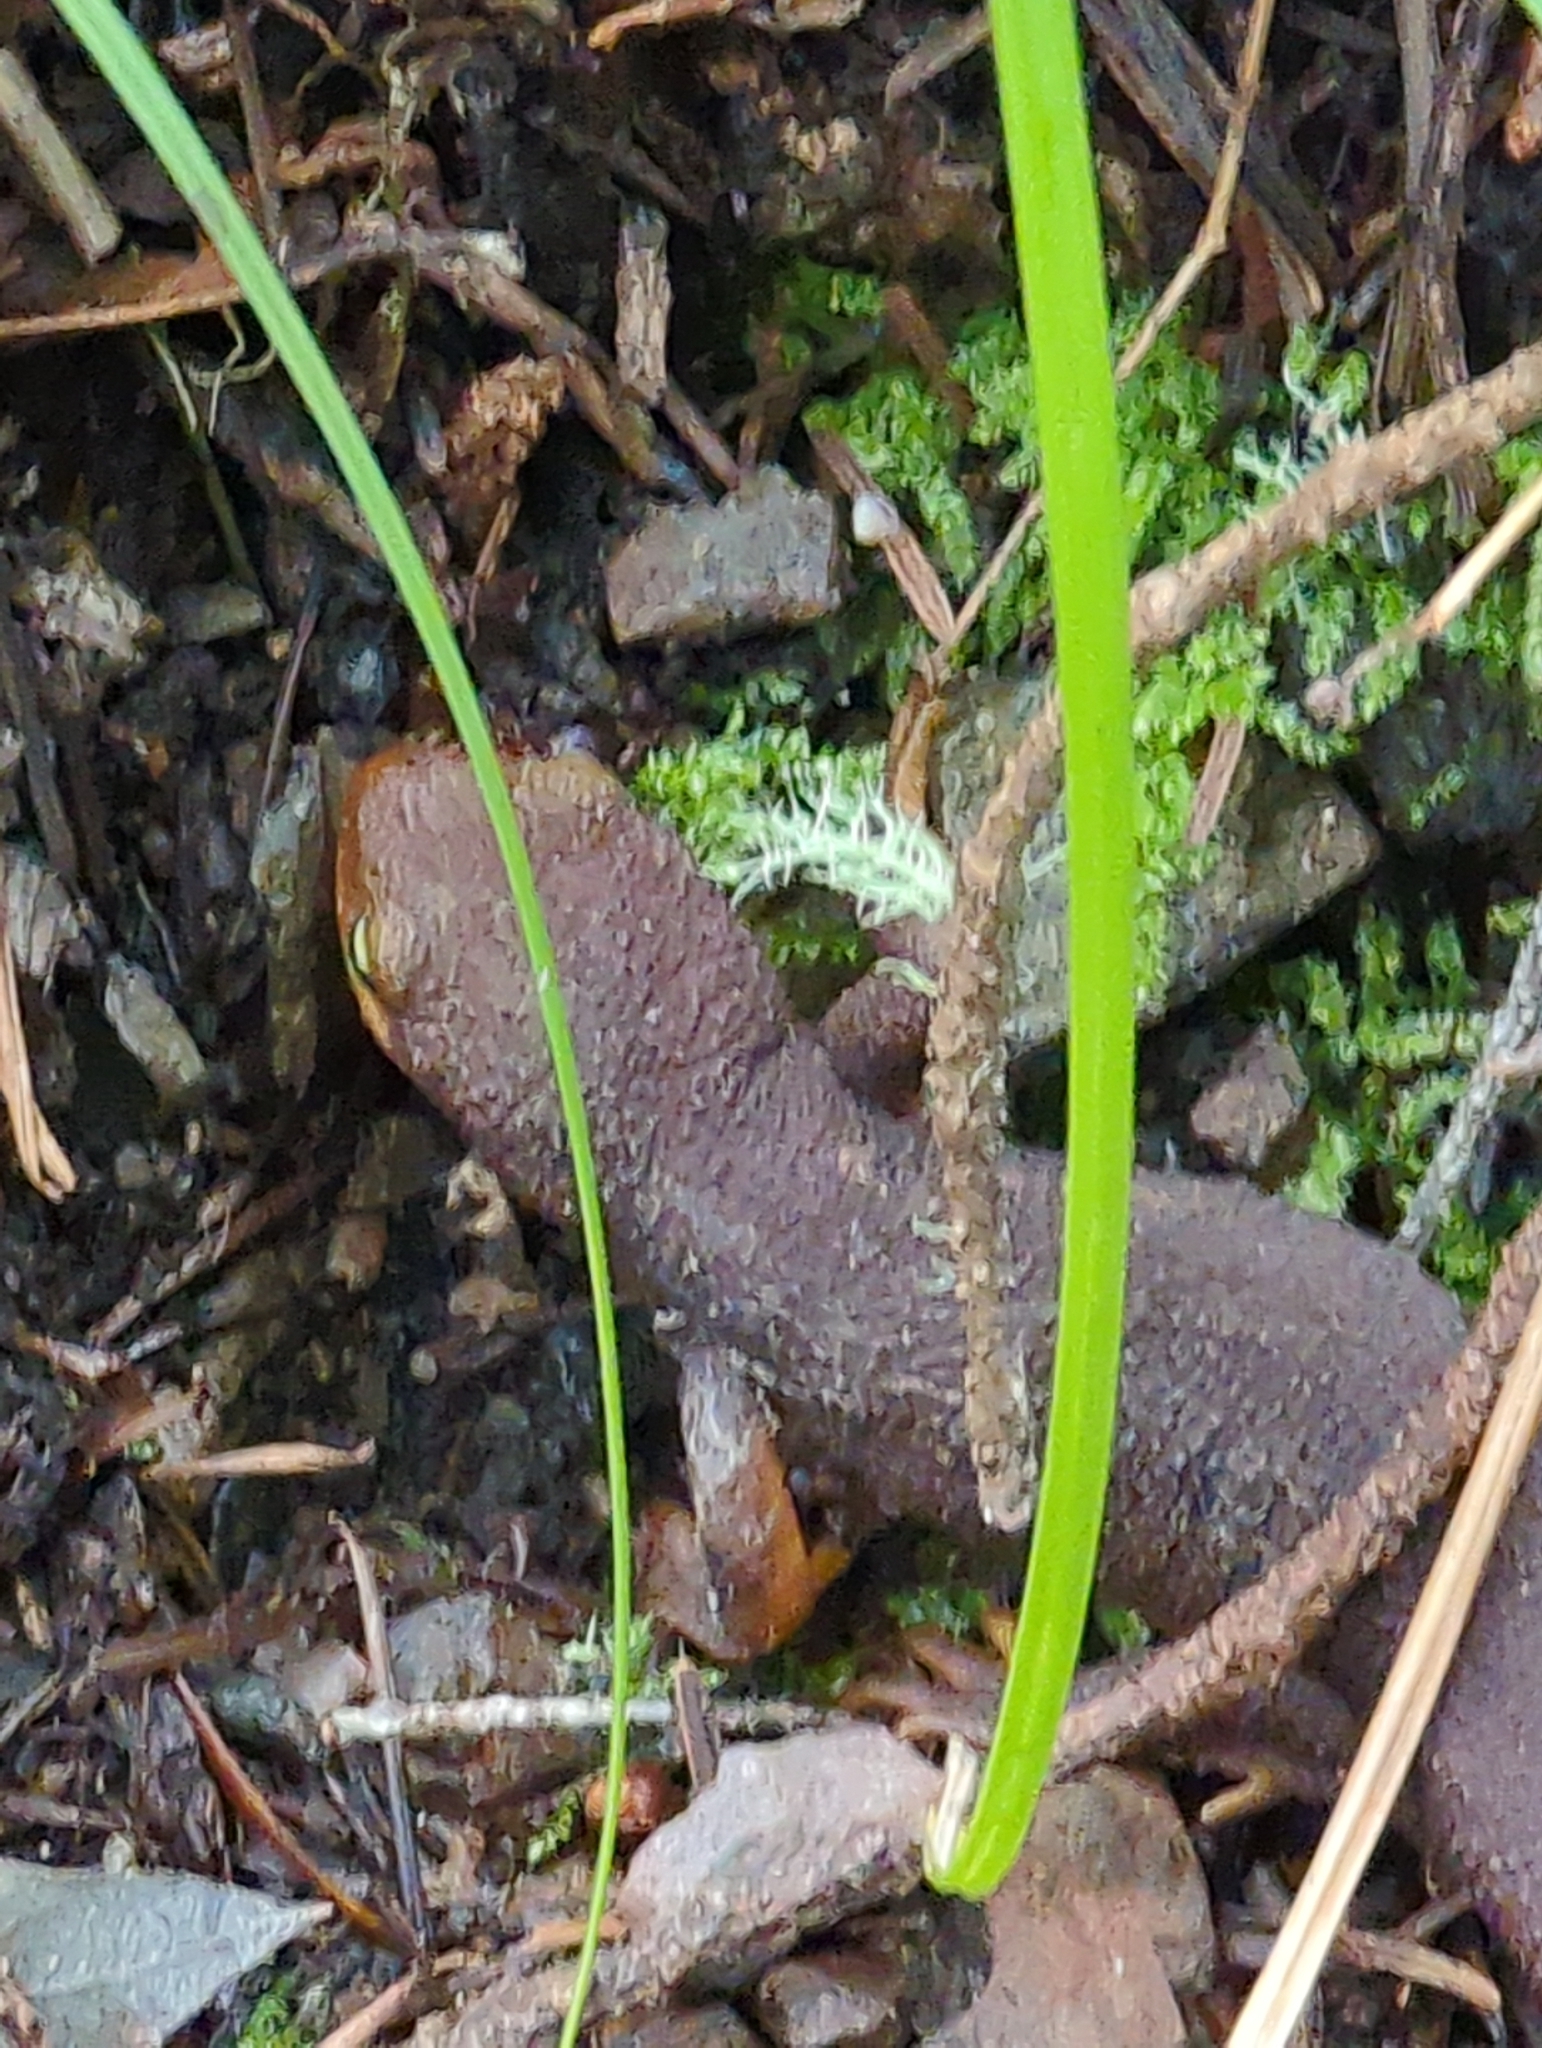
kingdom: Animalia
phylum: Chordata
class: Amphibia
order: Caudata
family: Salamandridae
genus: Taricha
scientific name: Taricha torosa
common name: California newt
